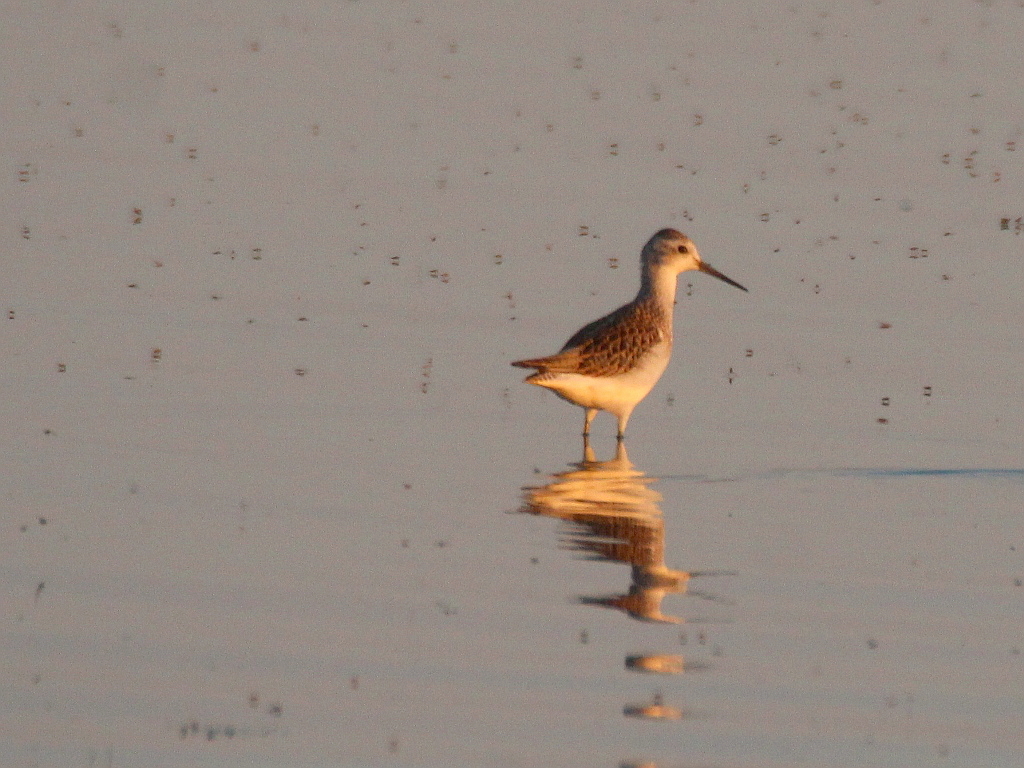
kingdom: Animalia
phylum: Chordata
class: Aves
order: Charadriiformes
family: Scolopacidae
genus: Tringa
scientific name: Tringa stagnatilis
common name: Marsh sandpiper
